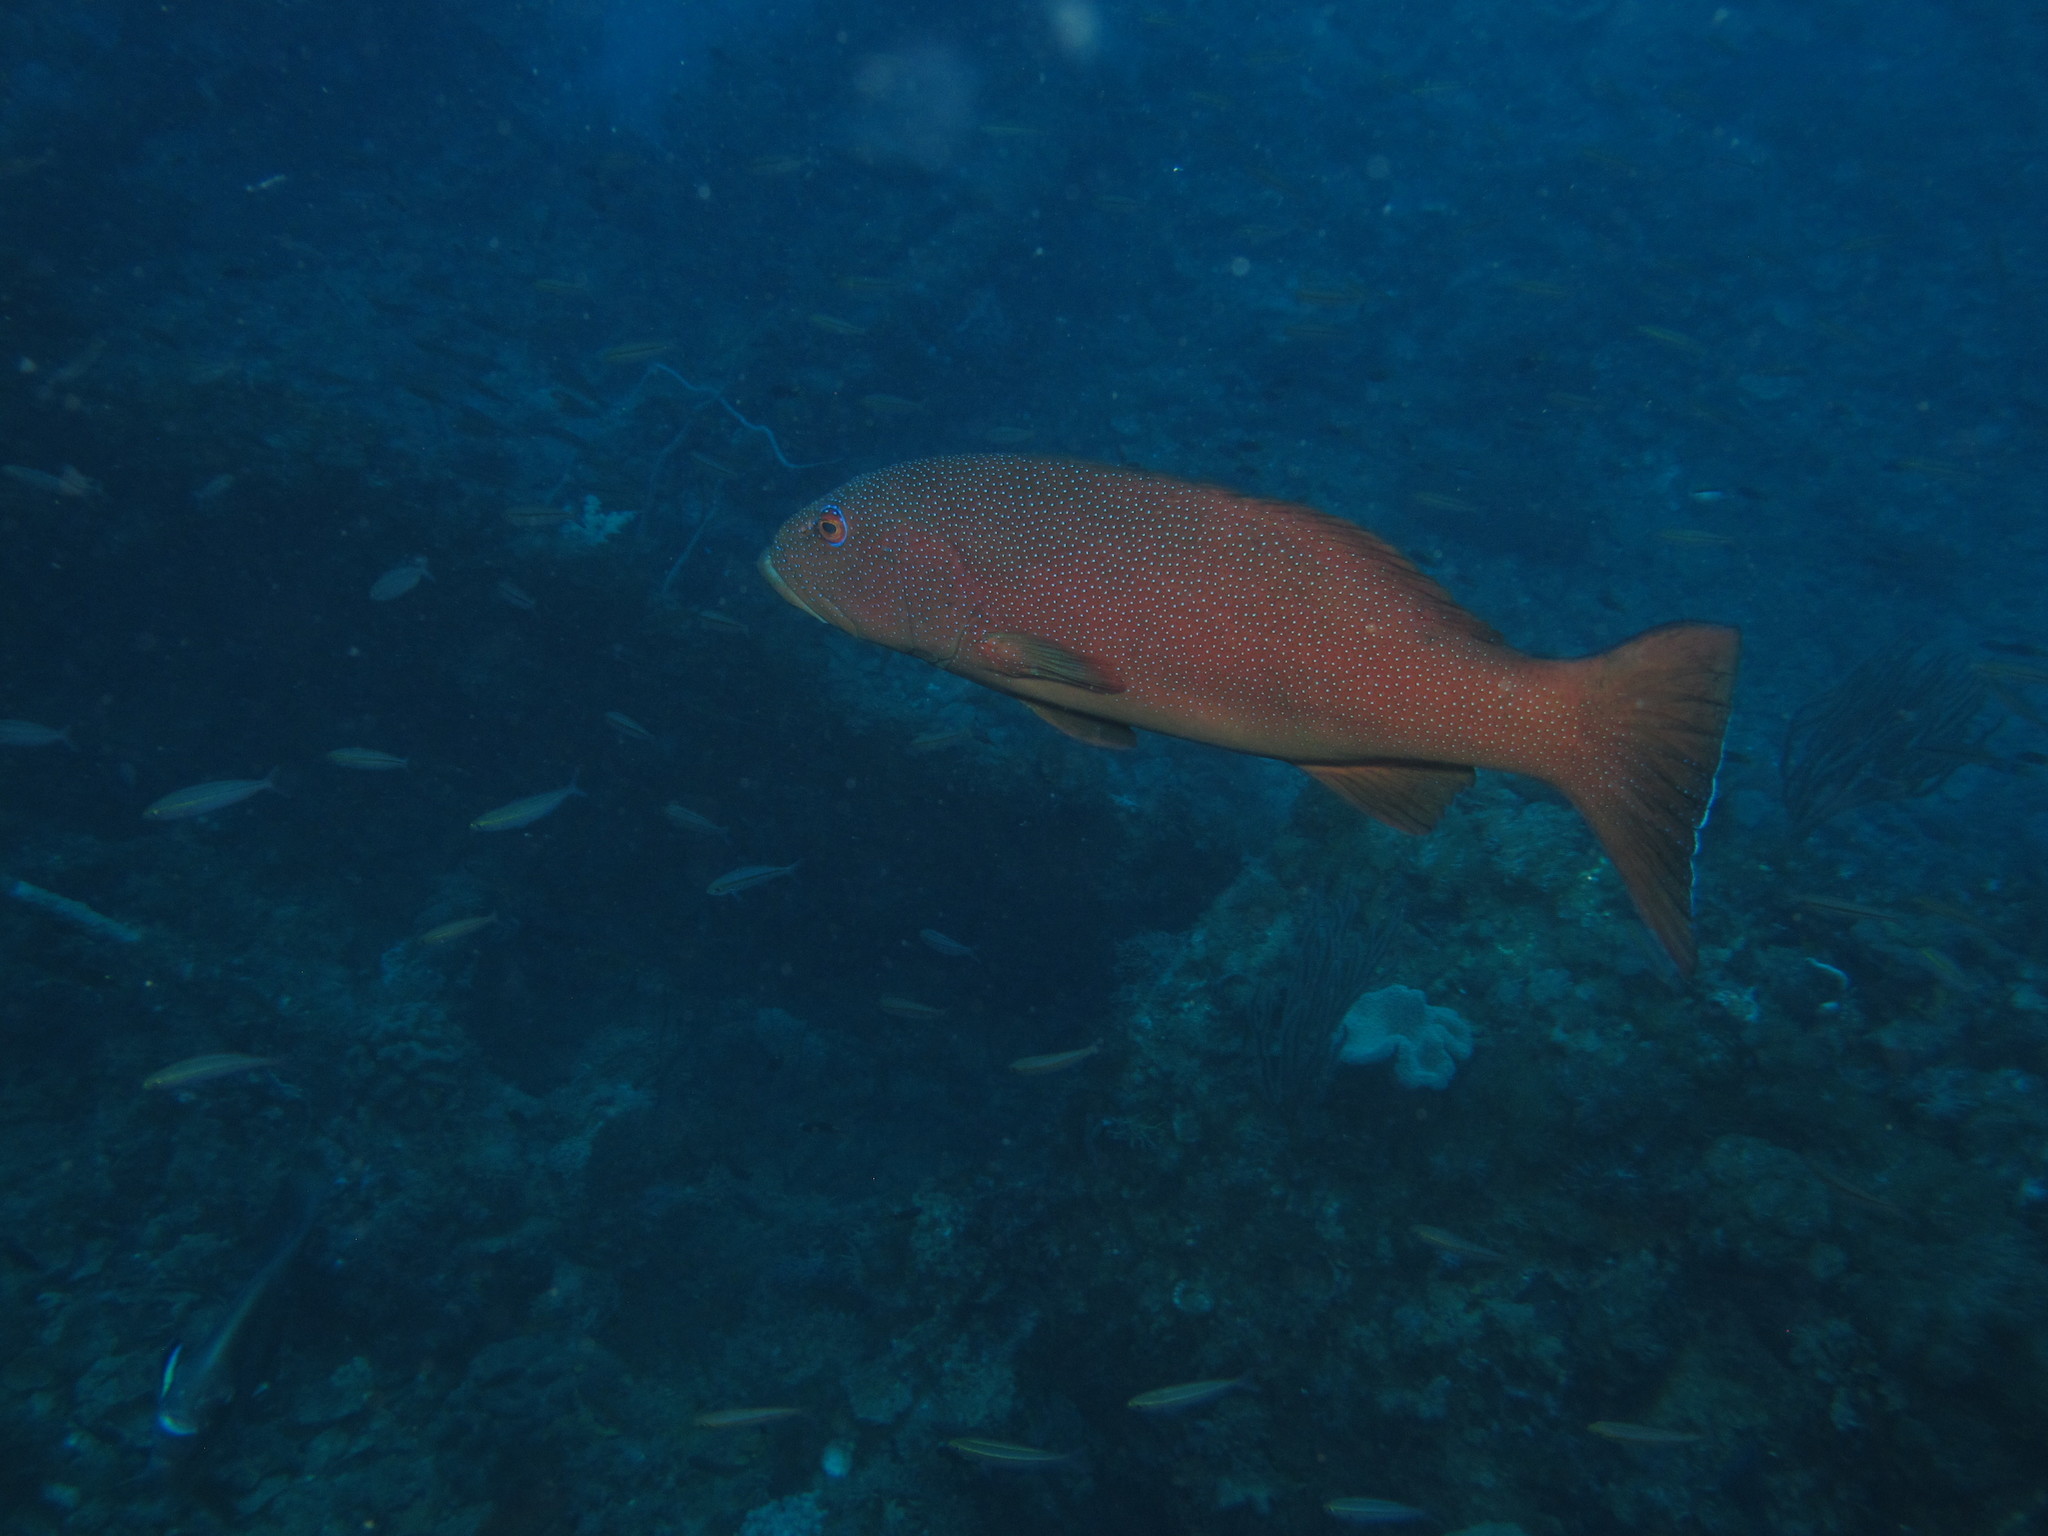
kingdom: Animalia
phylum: Chordata
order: Perciformes
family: Serranidae
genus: Plectropomus
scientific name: Plectropomus leopardus
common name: Coral trout
